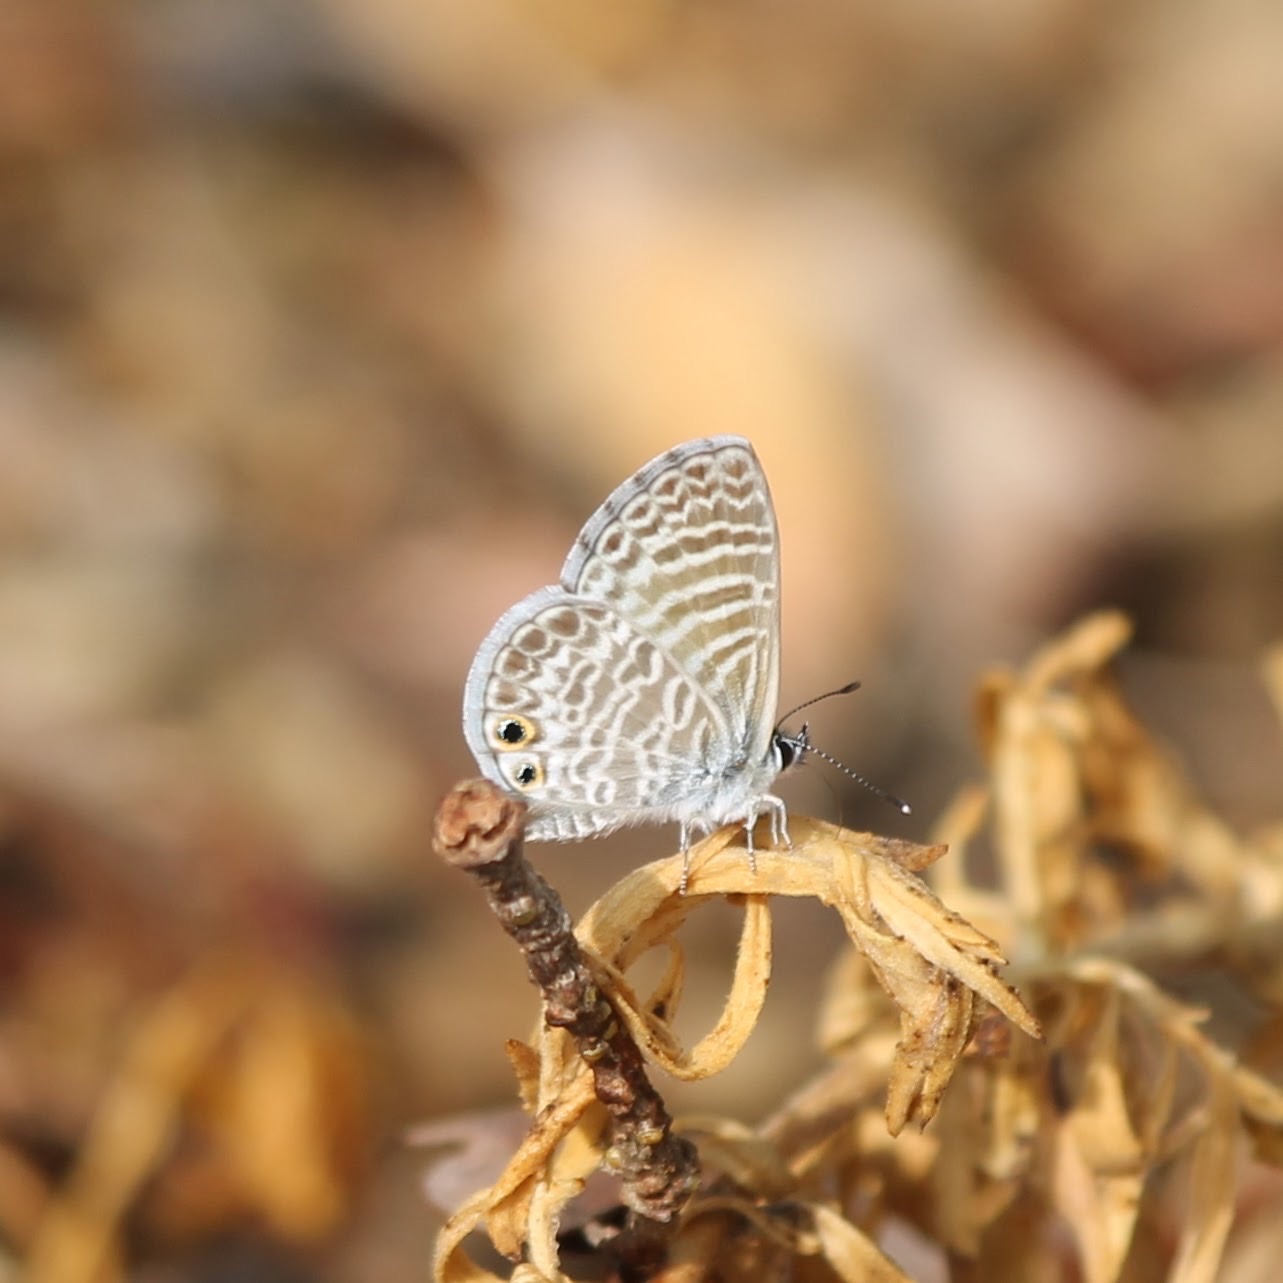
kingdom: Animalia
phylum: Arthropoda
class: Insecta
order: Lepidoptera
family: Lycaenidae
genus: Leptotes
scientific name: Leptotes marina
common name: Marine blue
